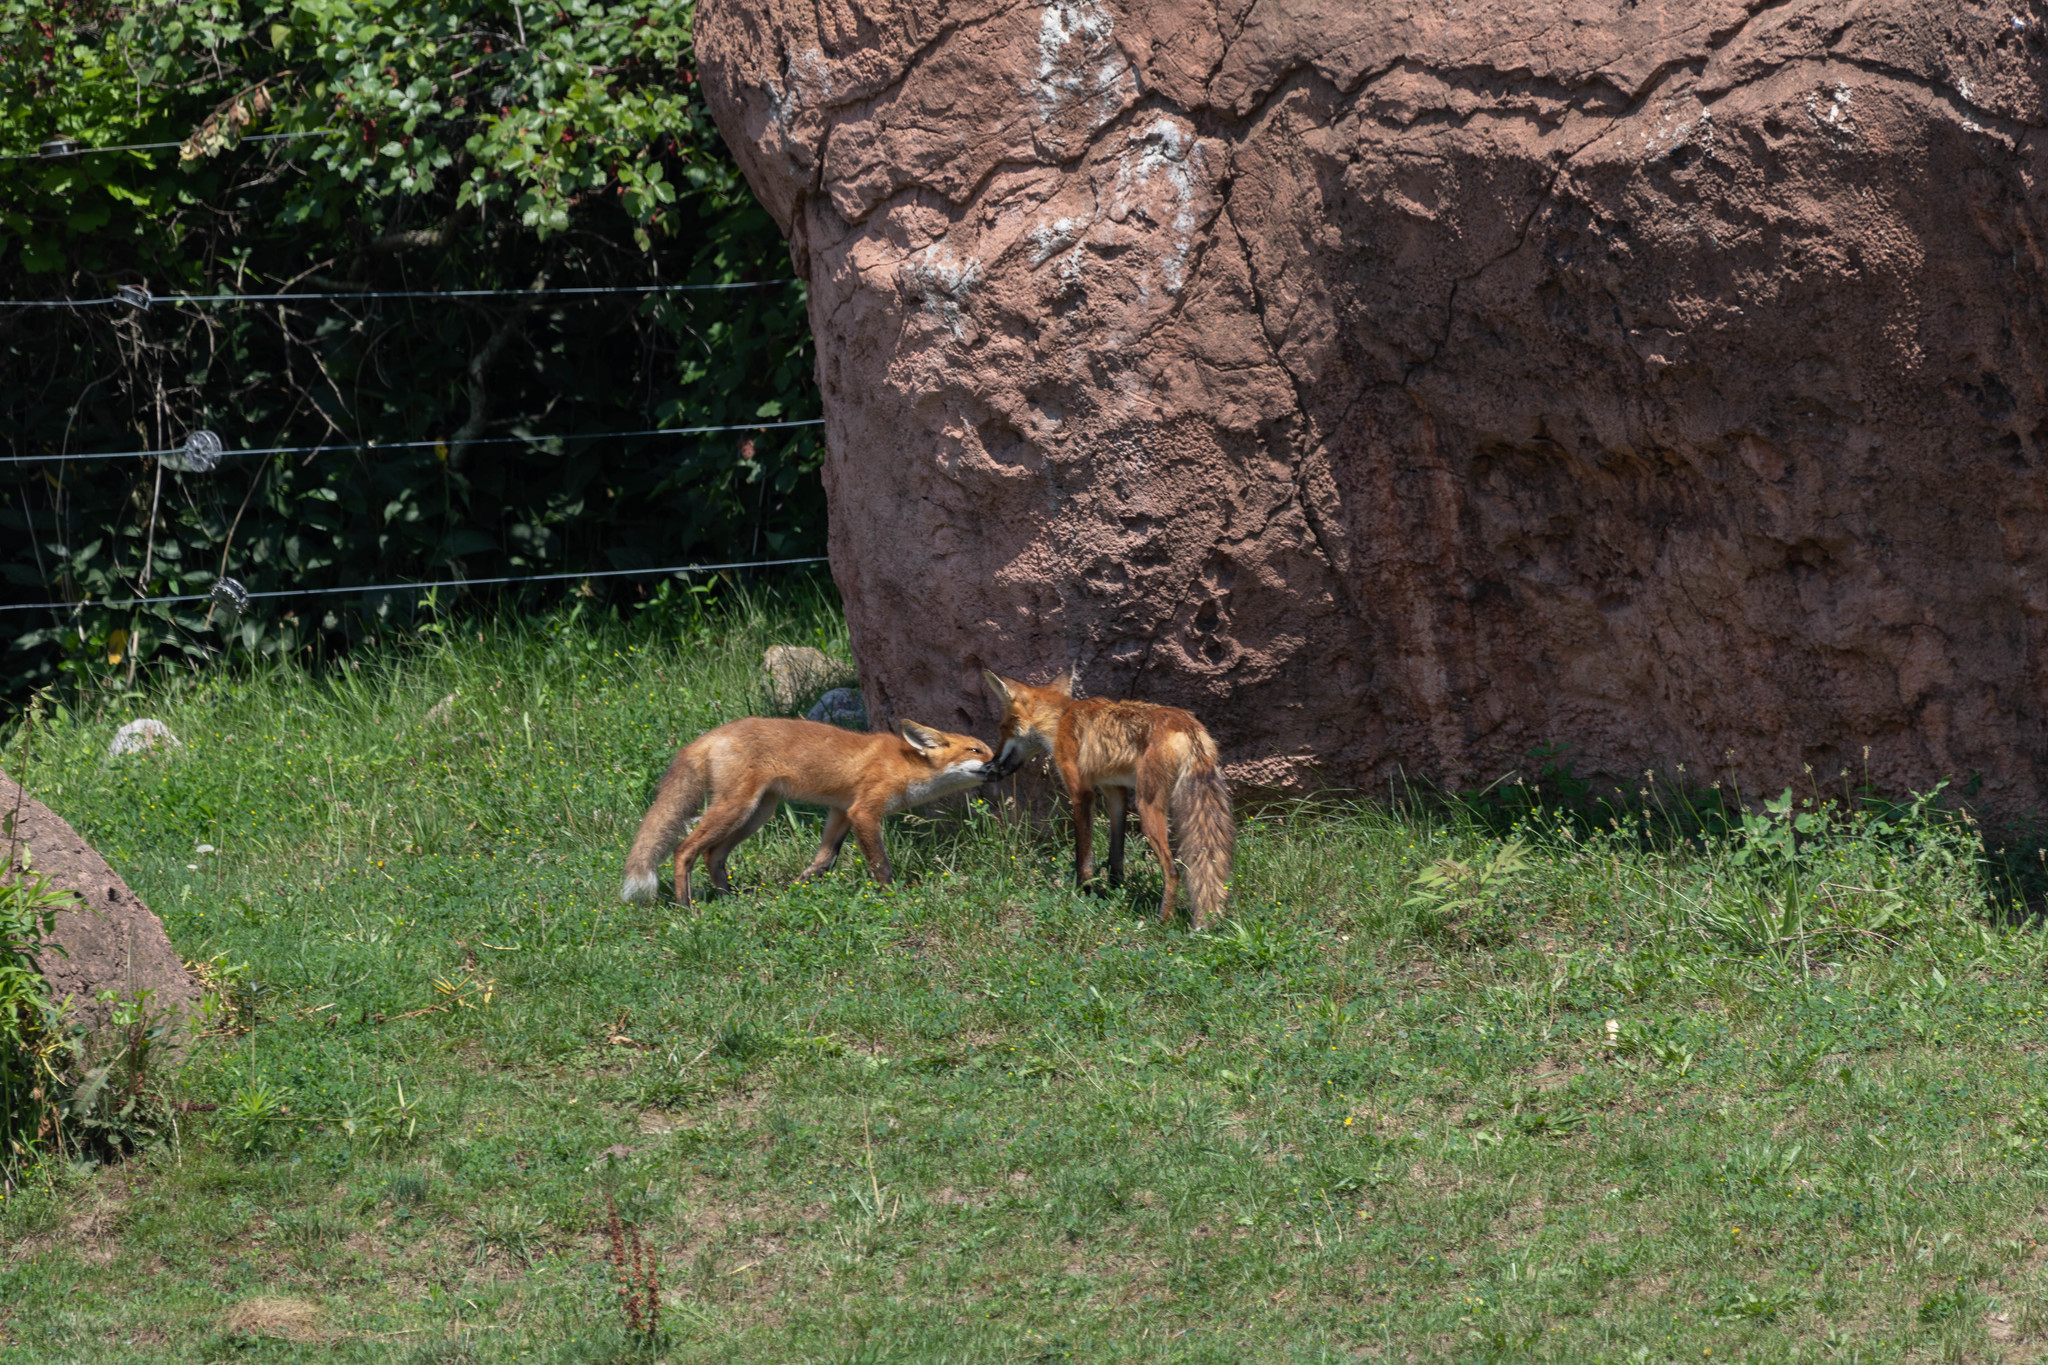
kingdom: Animalia
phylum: Chordata
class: Mammalia
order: Carnivora
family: Canidae
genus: Vulpes
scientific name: Vulpes vulpes
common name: Red fox
